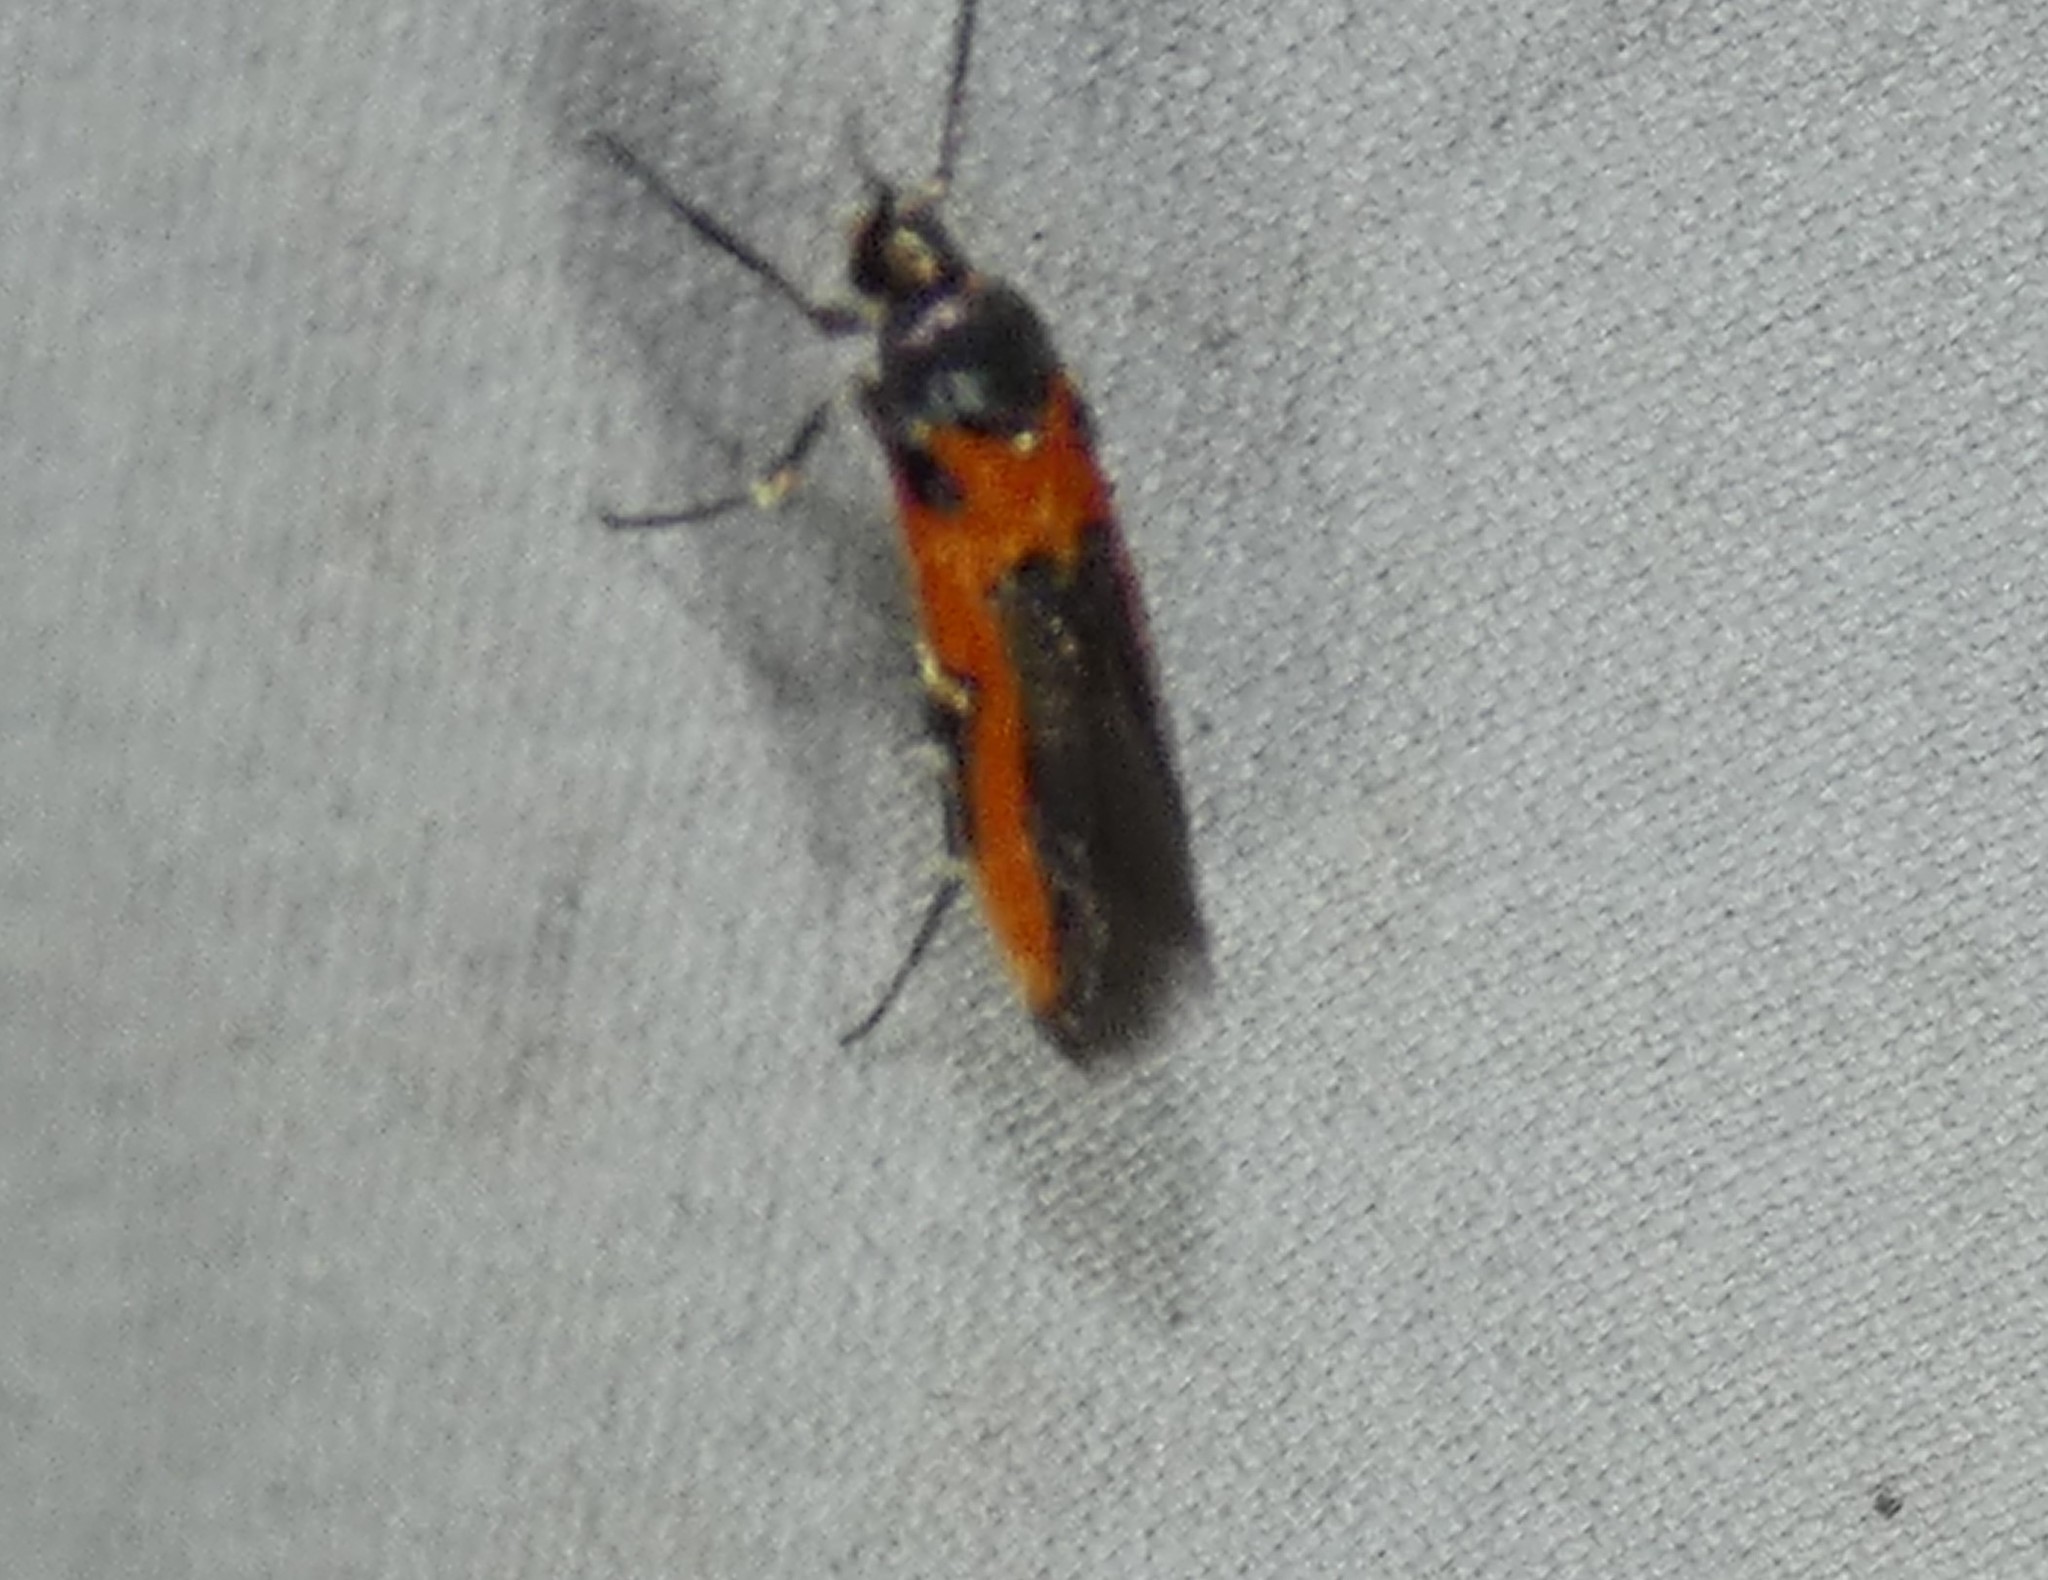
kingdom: Animalia
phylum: Arthropoda
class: Insecta
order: Lepidoptera
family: Cosmopterigidae
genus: Euclemensia
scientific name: Euclemensia bassettella
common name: Kermes scale moth
